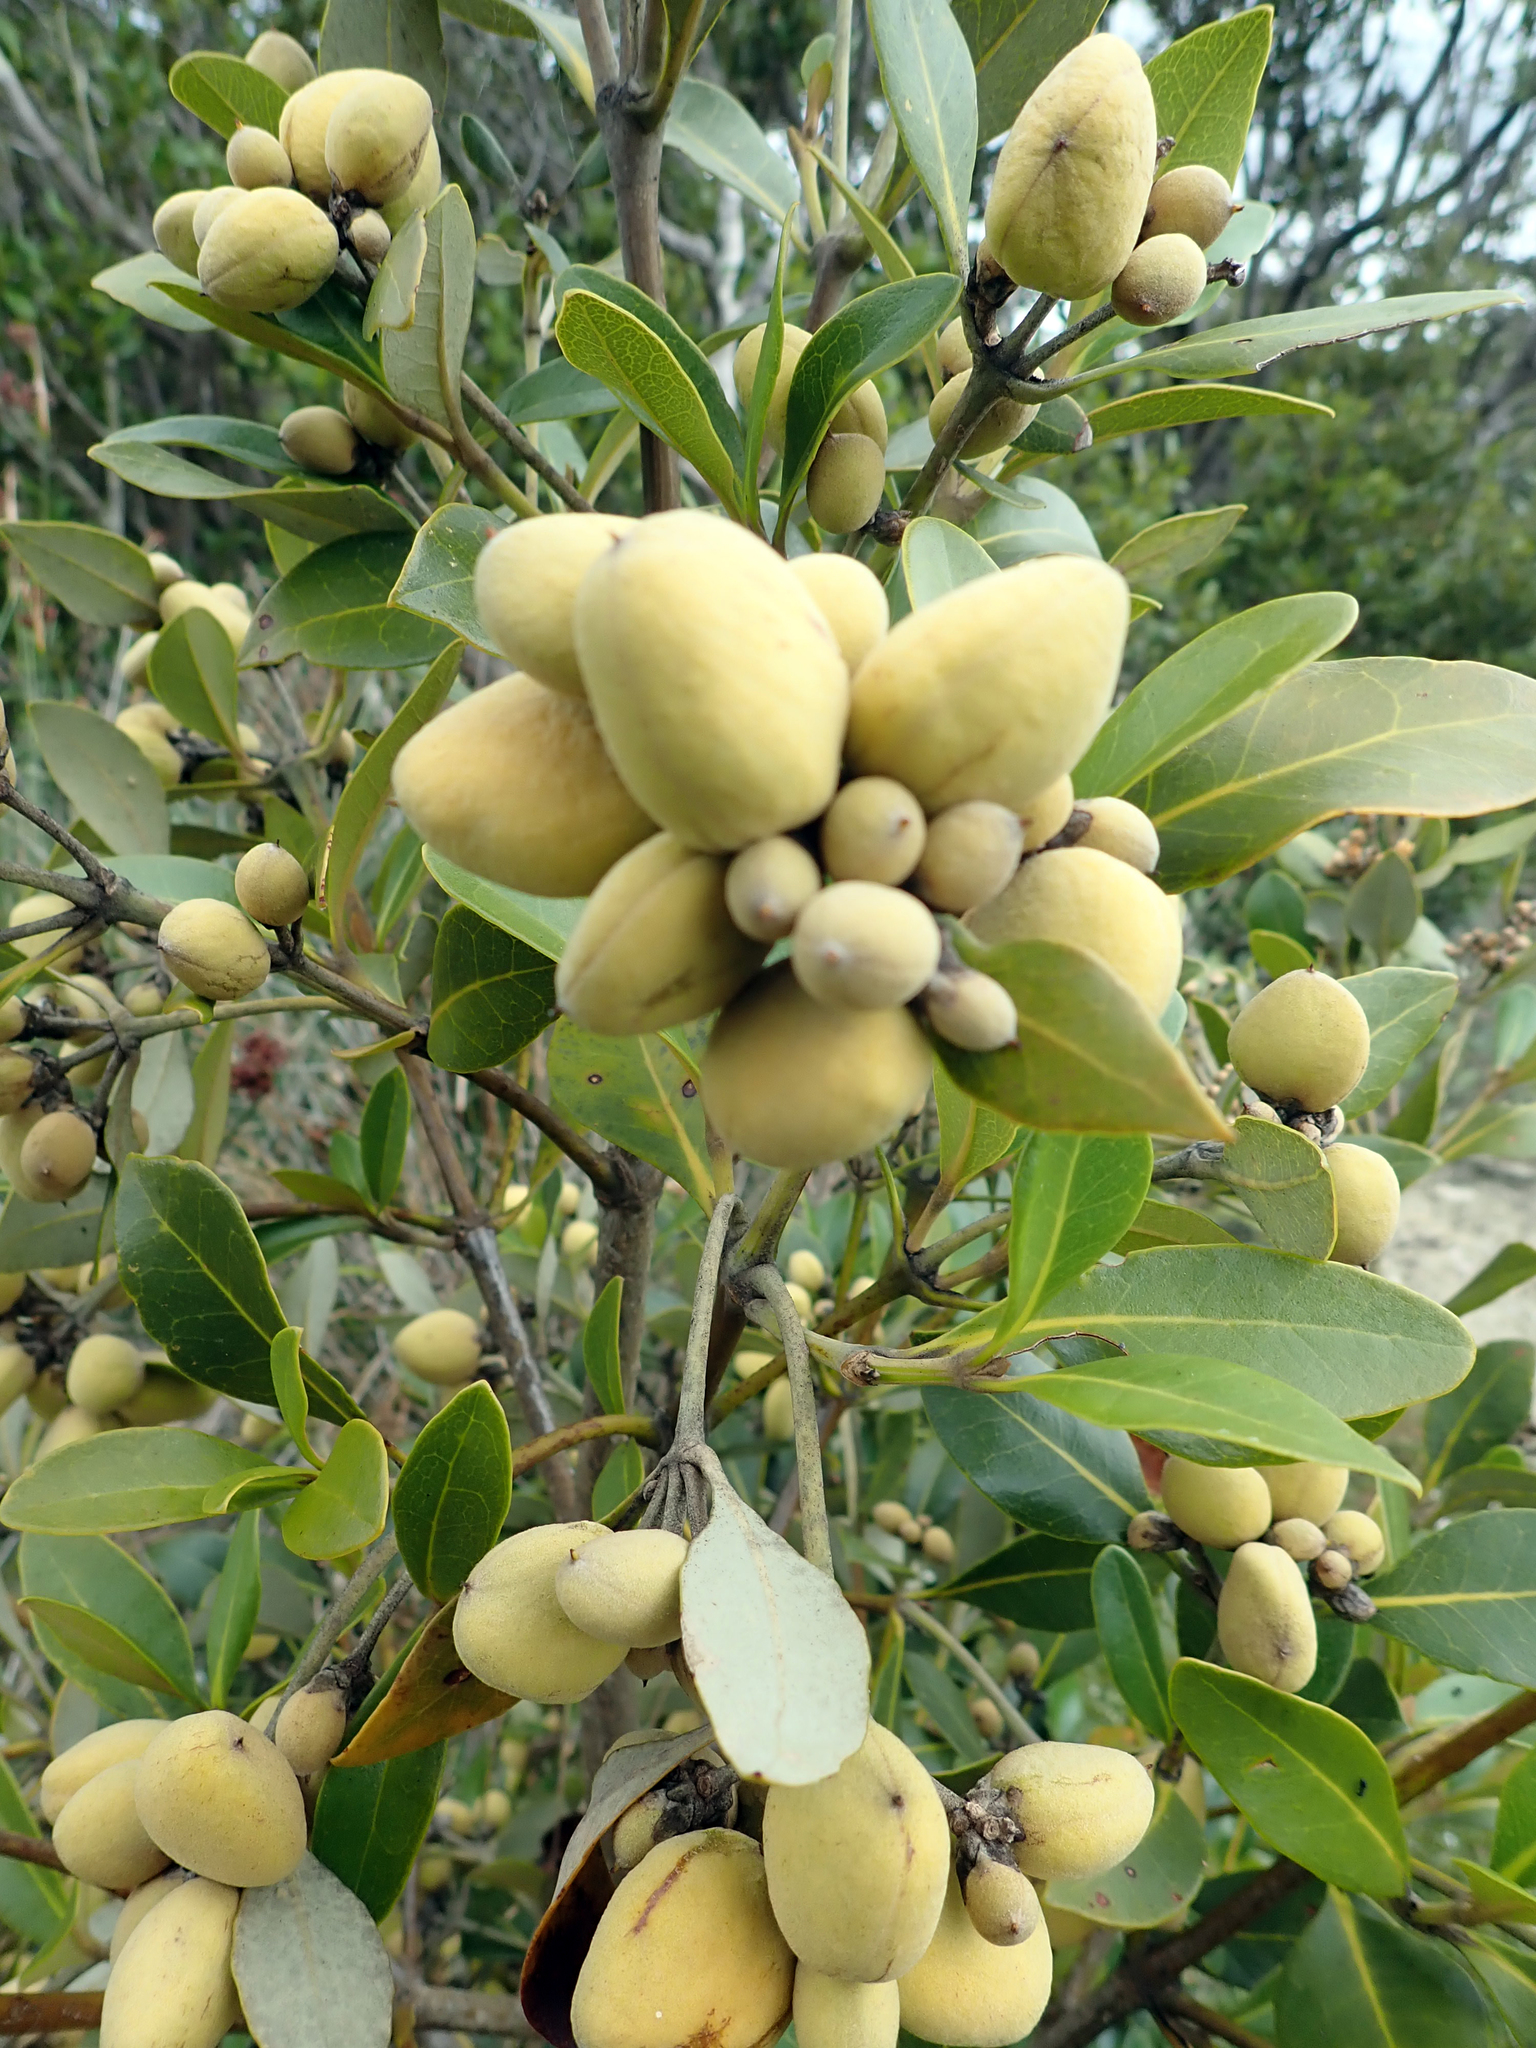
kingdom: Plantae
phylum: Tracheophyta
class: Magnoliopsida
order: Lamiales
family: Acanthaceae
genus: Avicennia
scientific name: Avicennia marina
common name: Gray mangrove
